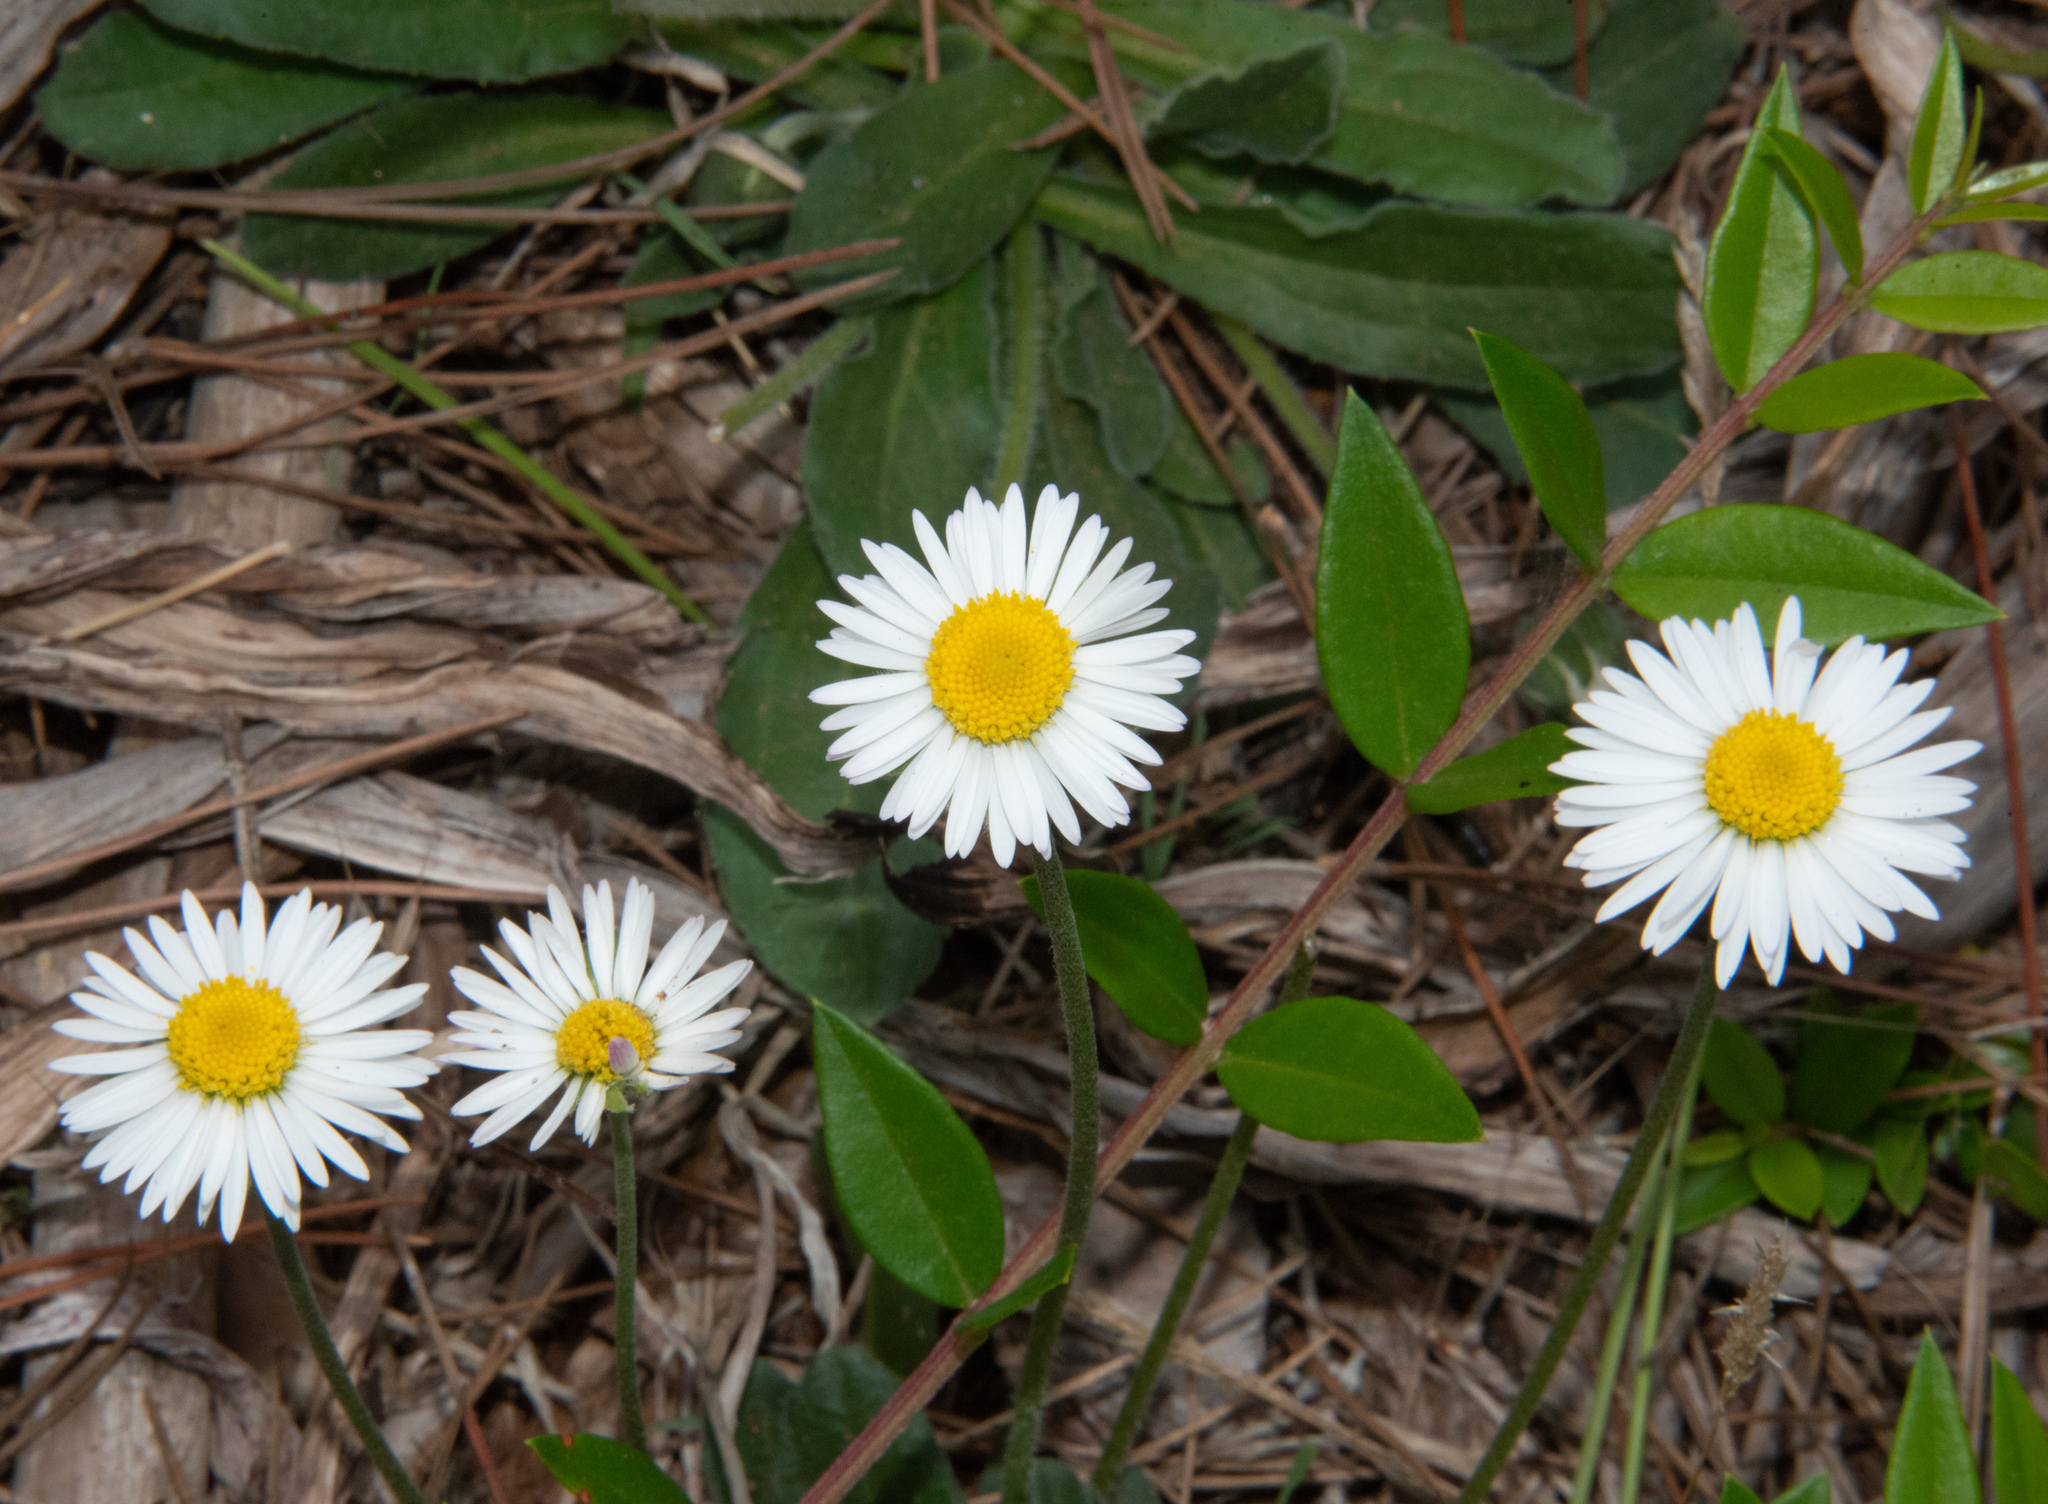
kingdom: Plantae
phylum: Tracheophyta
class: Magnoliopsida
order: Asterales
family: Asteraceae
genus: Bellis
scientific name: Bellis perennis
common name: Lawndaisy
